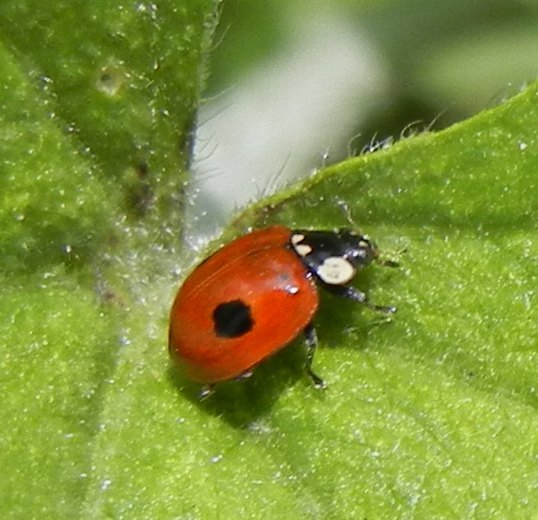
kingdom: Animalia
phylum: Arthropoda
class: Insecta
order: Coleoptera
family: Coccinellidae
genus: Adalia
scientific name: Adalia bipunctata
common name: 2-spot ladybird
